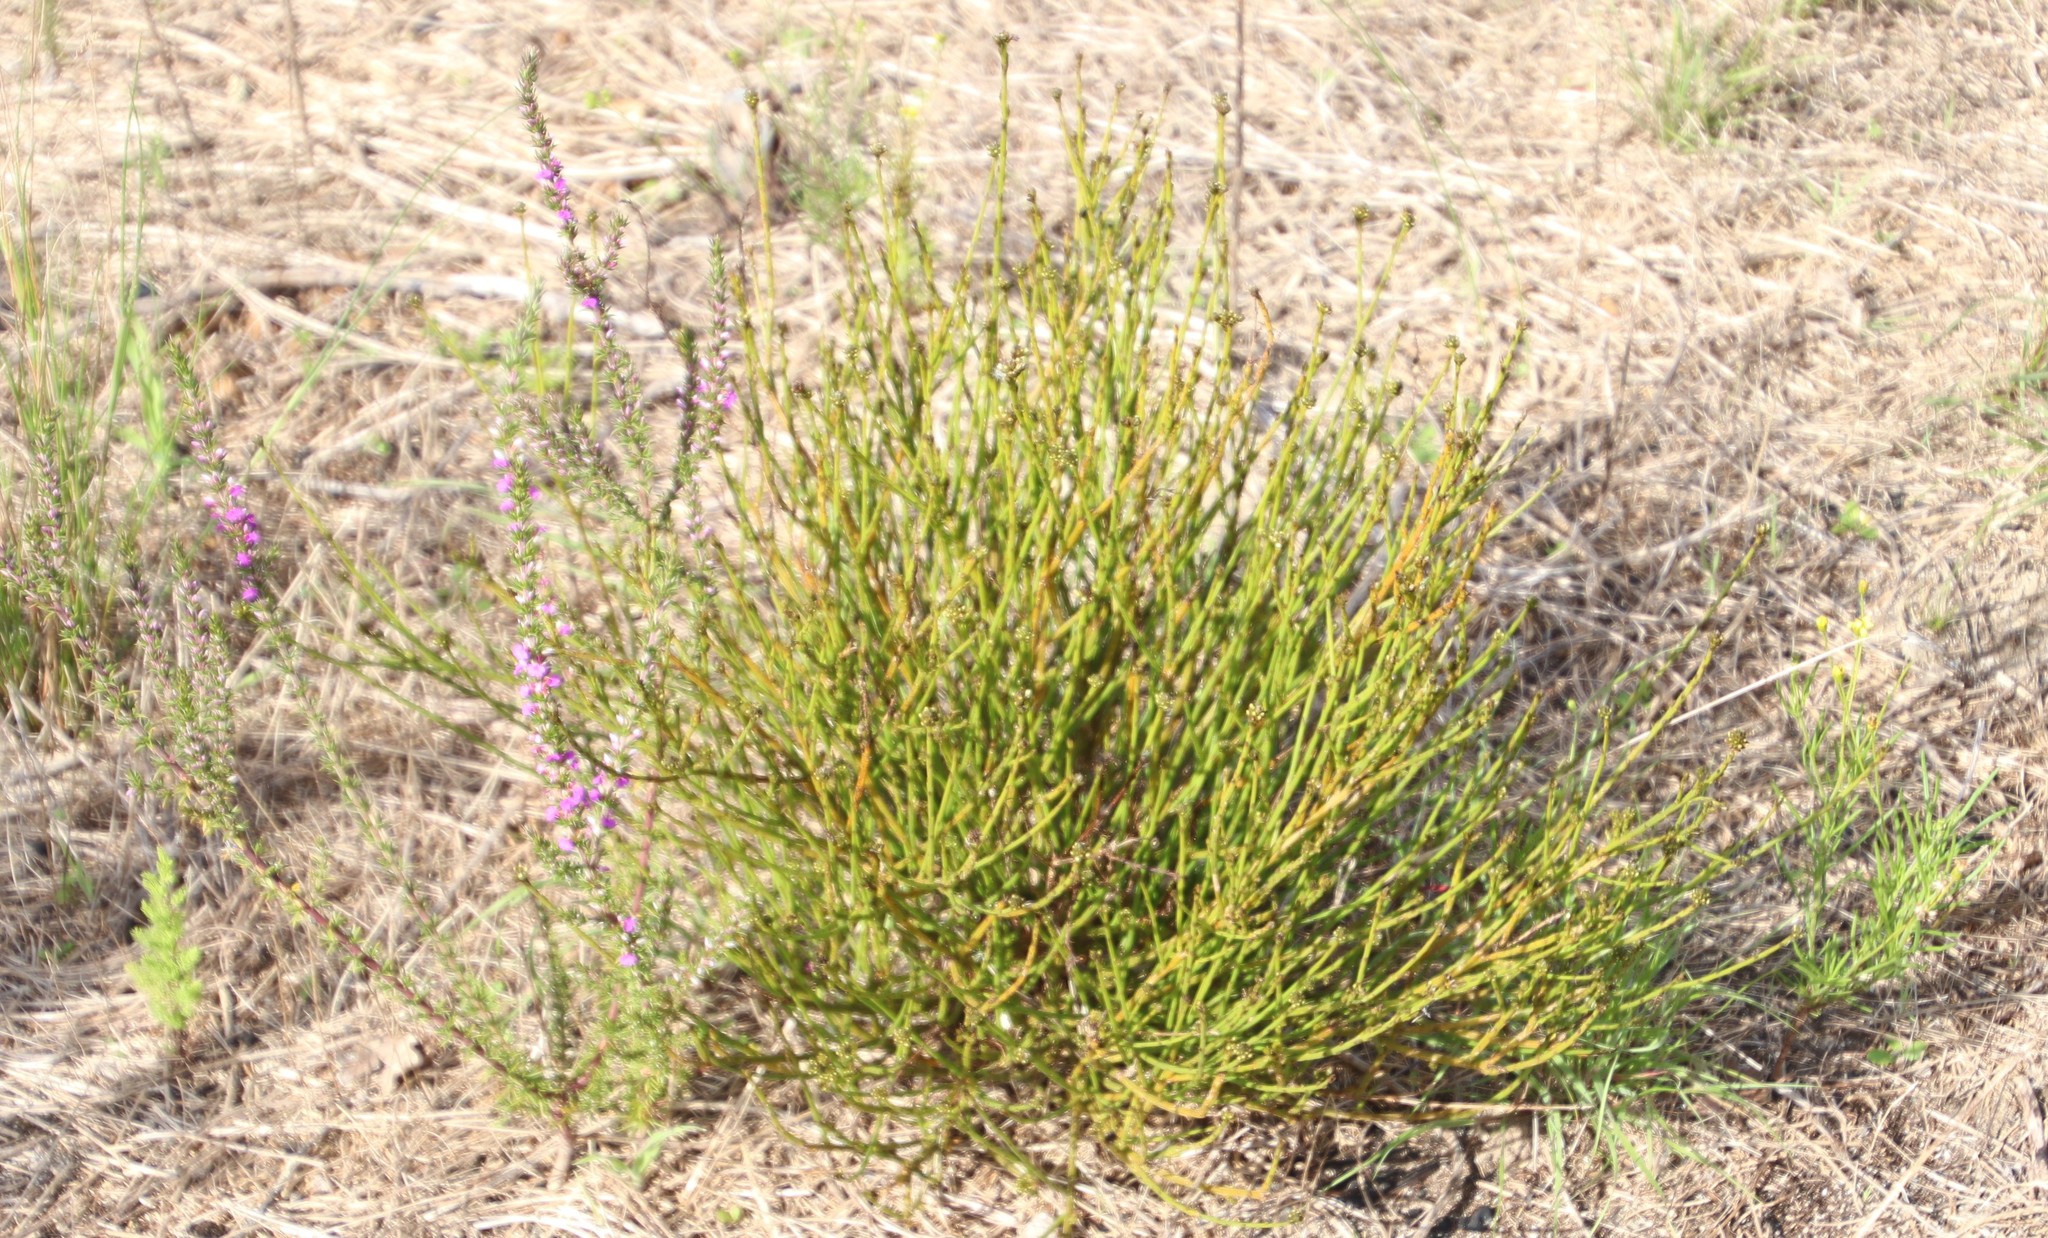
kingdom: Plantae
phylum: Tracheophyta
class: Magnoliopsida
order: Santalales
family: Thesiaceae
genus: Thesium
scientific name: Thesium aggregatum
